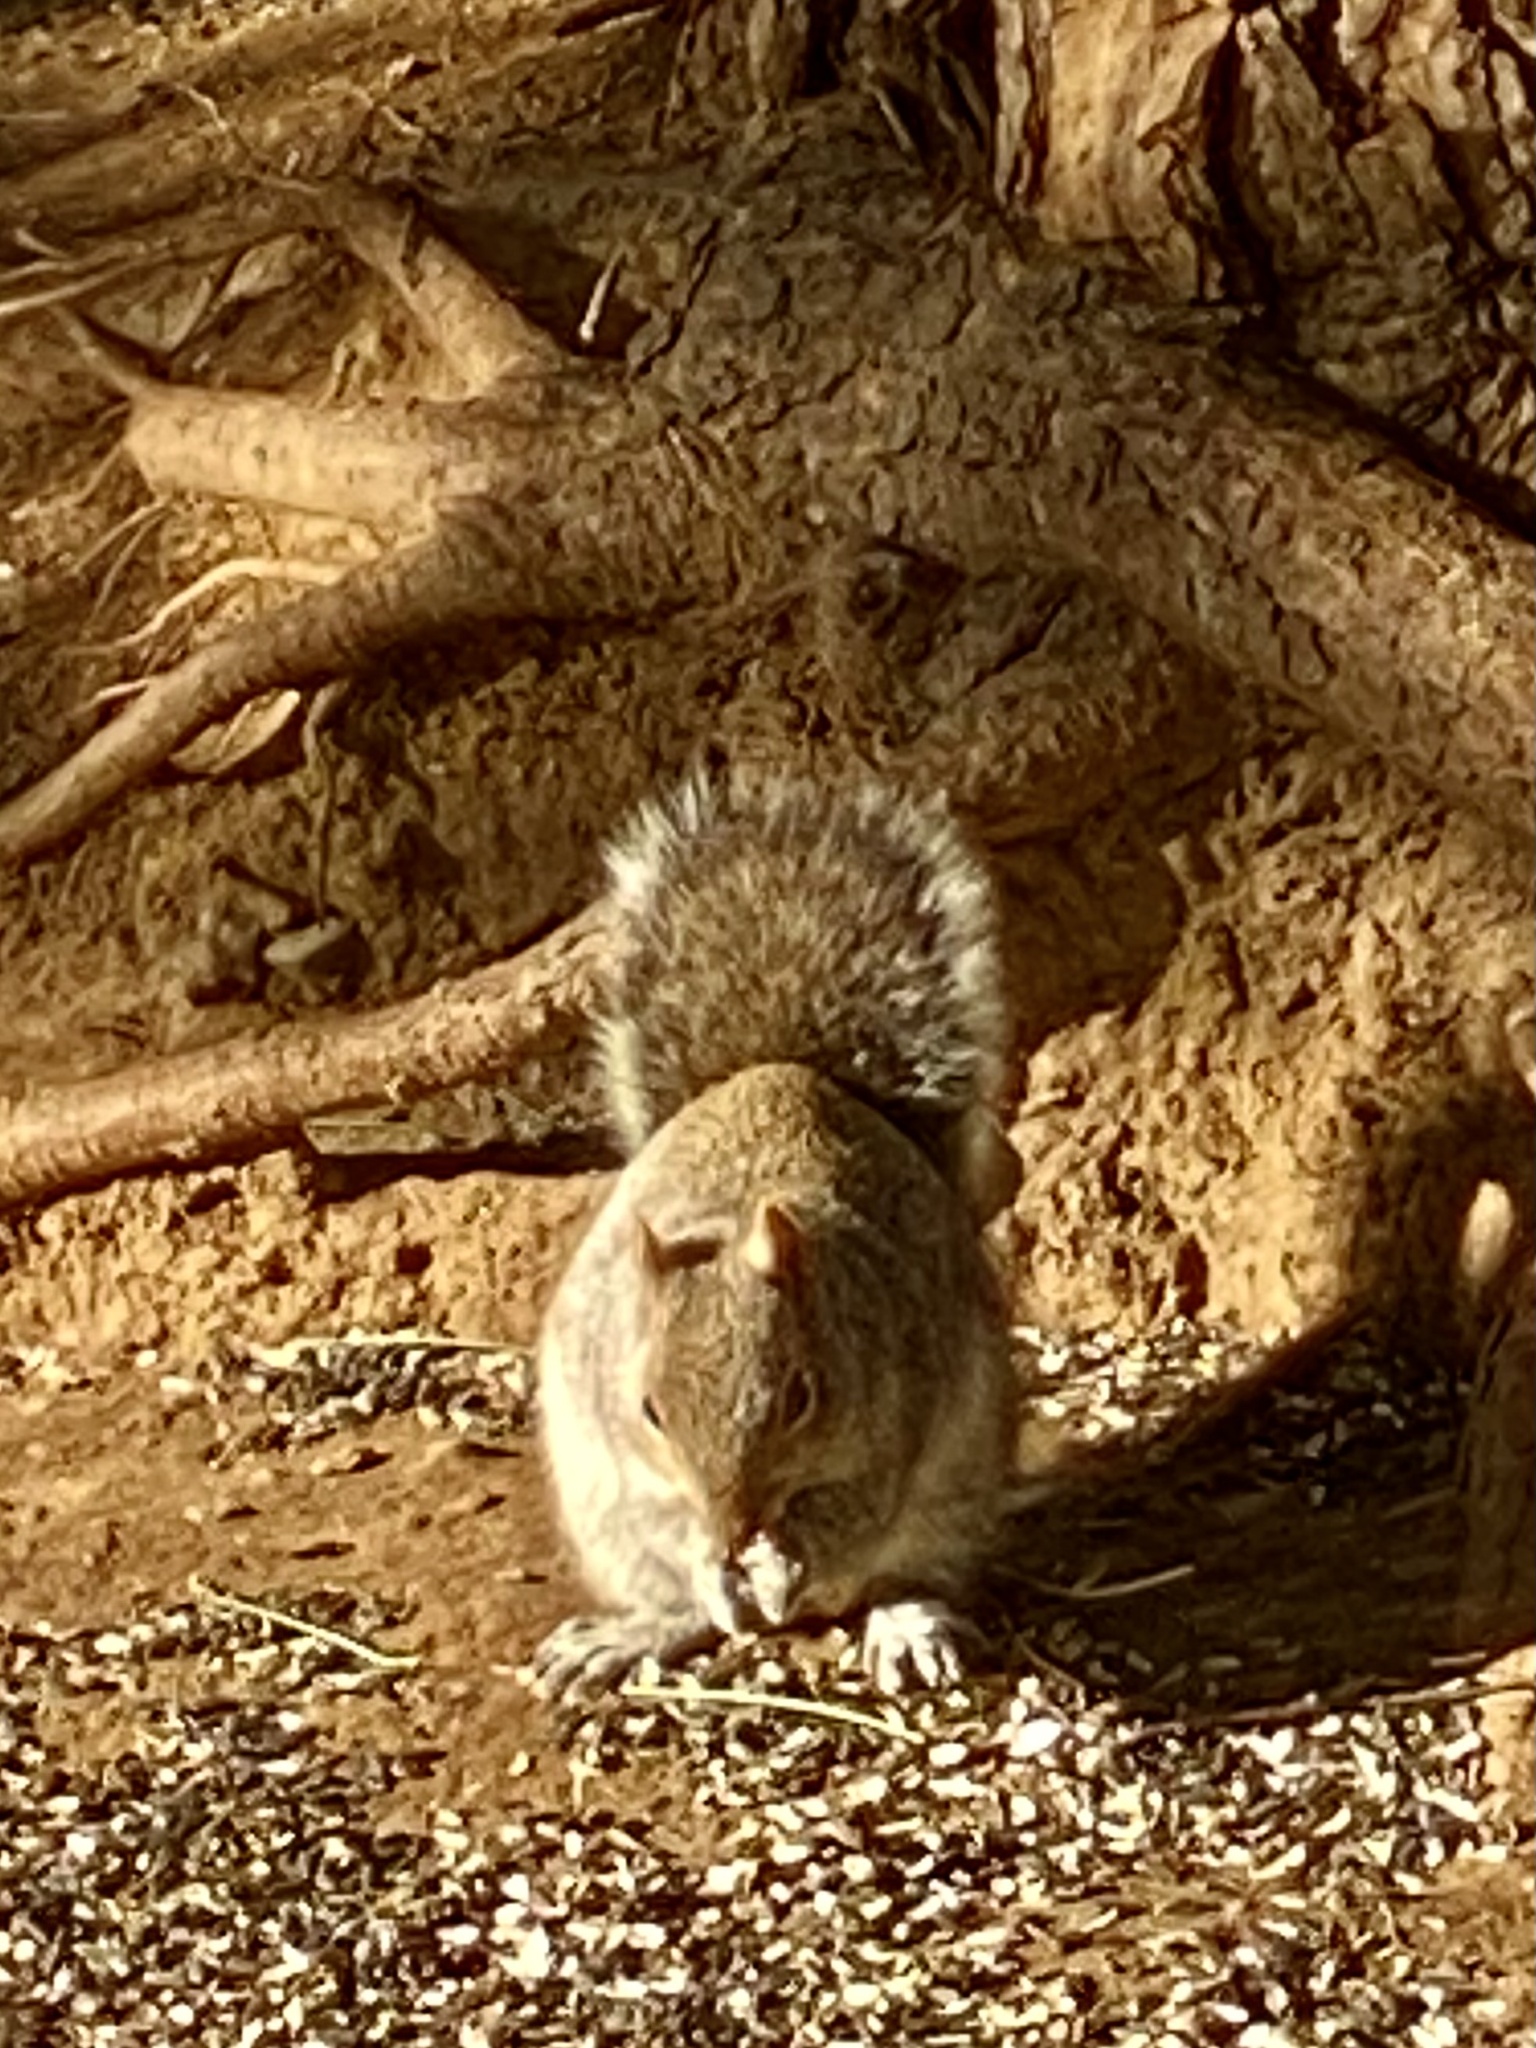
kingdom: Animalia
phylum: Chordata
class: Mammalia
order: Rodentia
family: Sciuridae
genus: Sciurus
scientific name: Sciurus carolinensis
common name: Eastern gray squirrel
